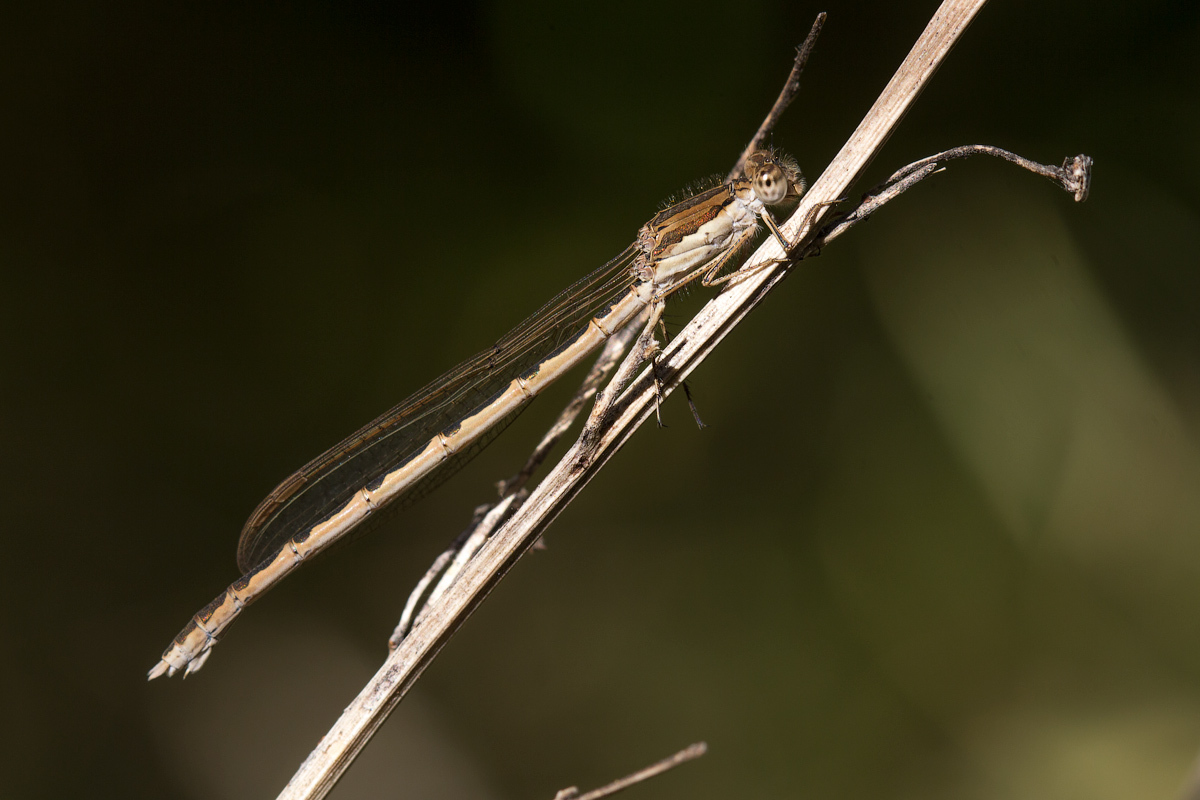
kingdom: Animalia
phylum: Arthropoda
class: Insecta
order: Odonata
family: Lestidae
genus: Sympecma
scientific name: Sympecma fusca
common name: Common winter damsel
